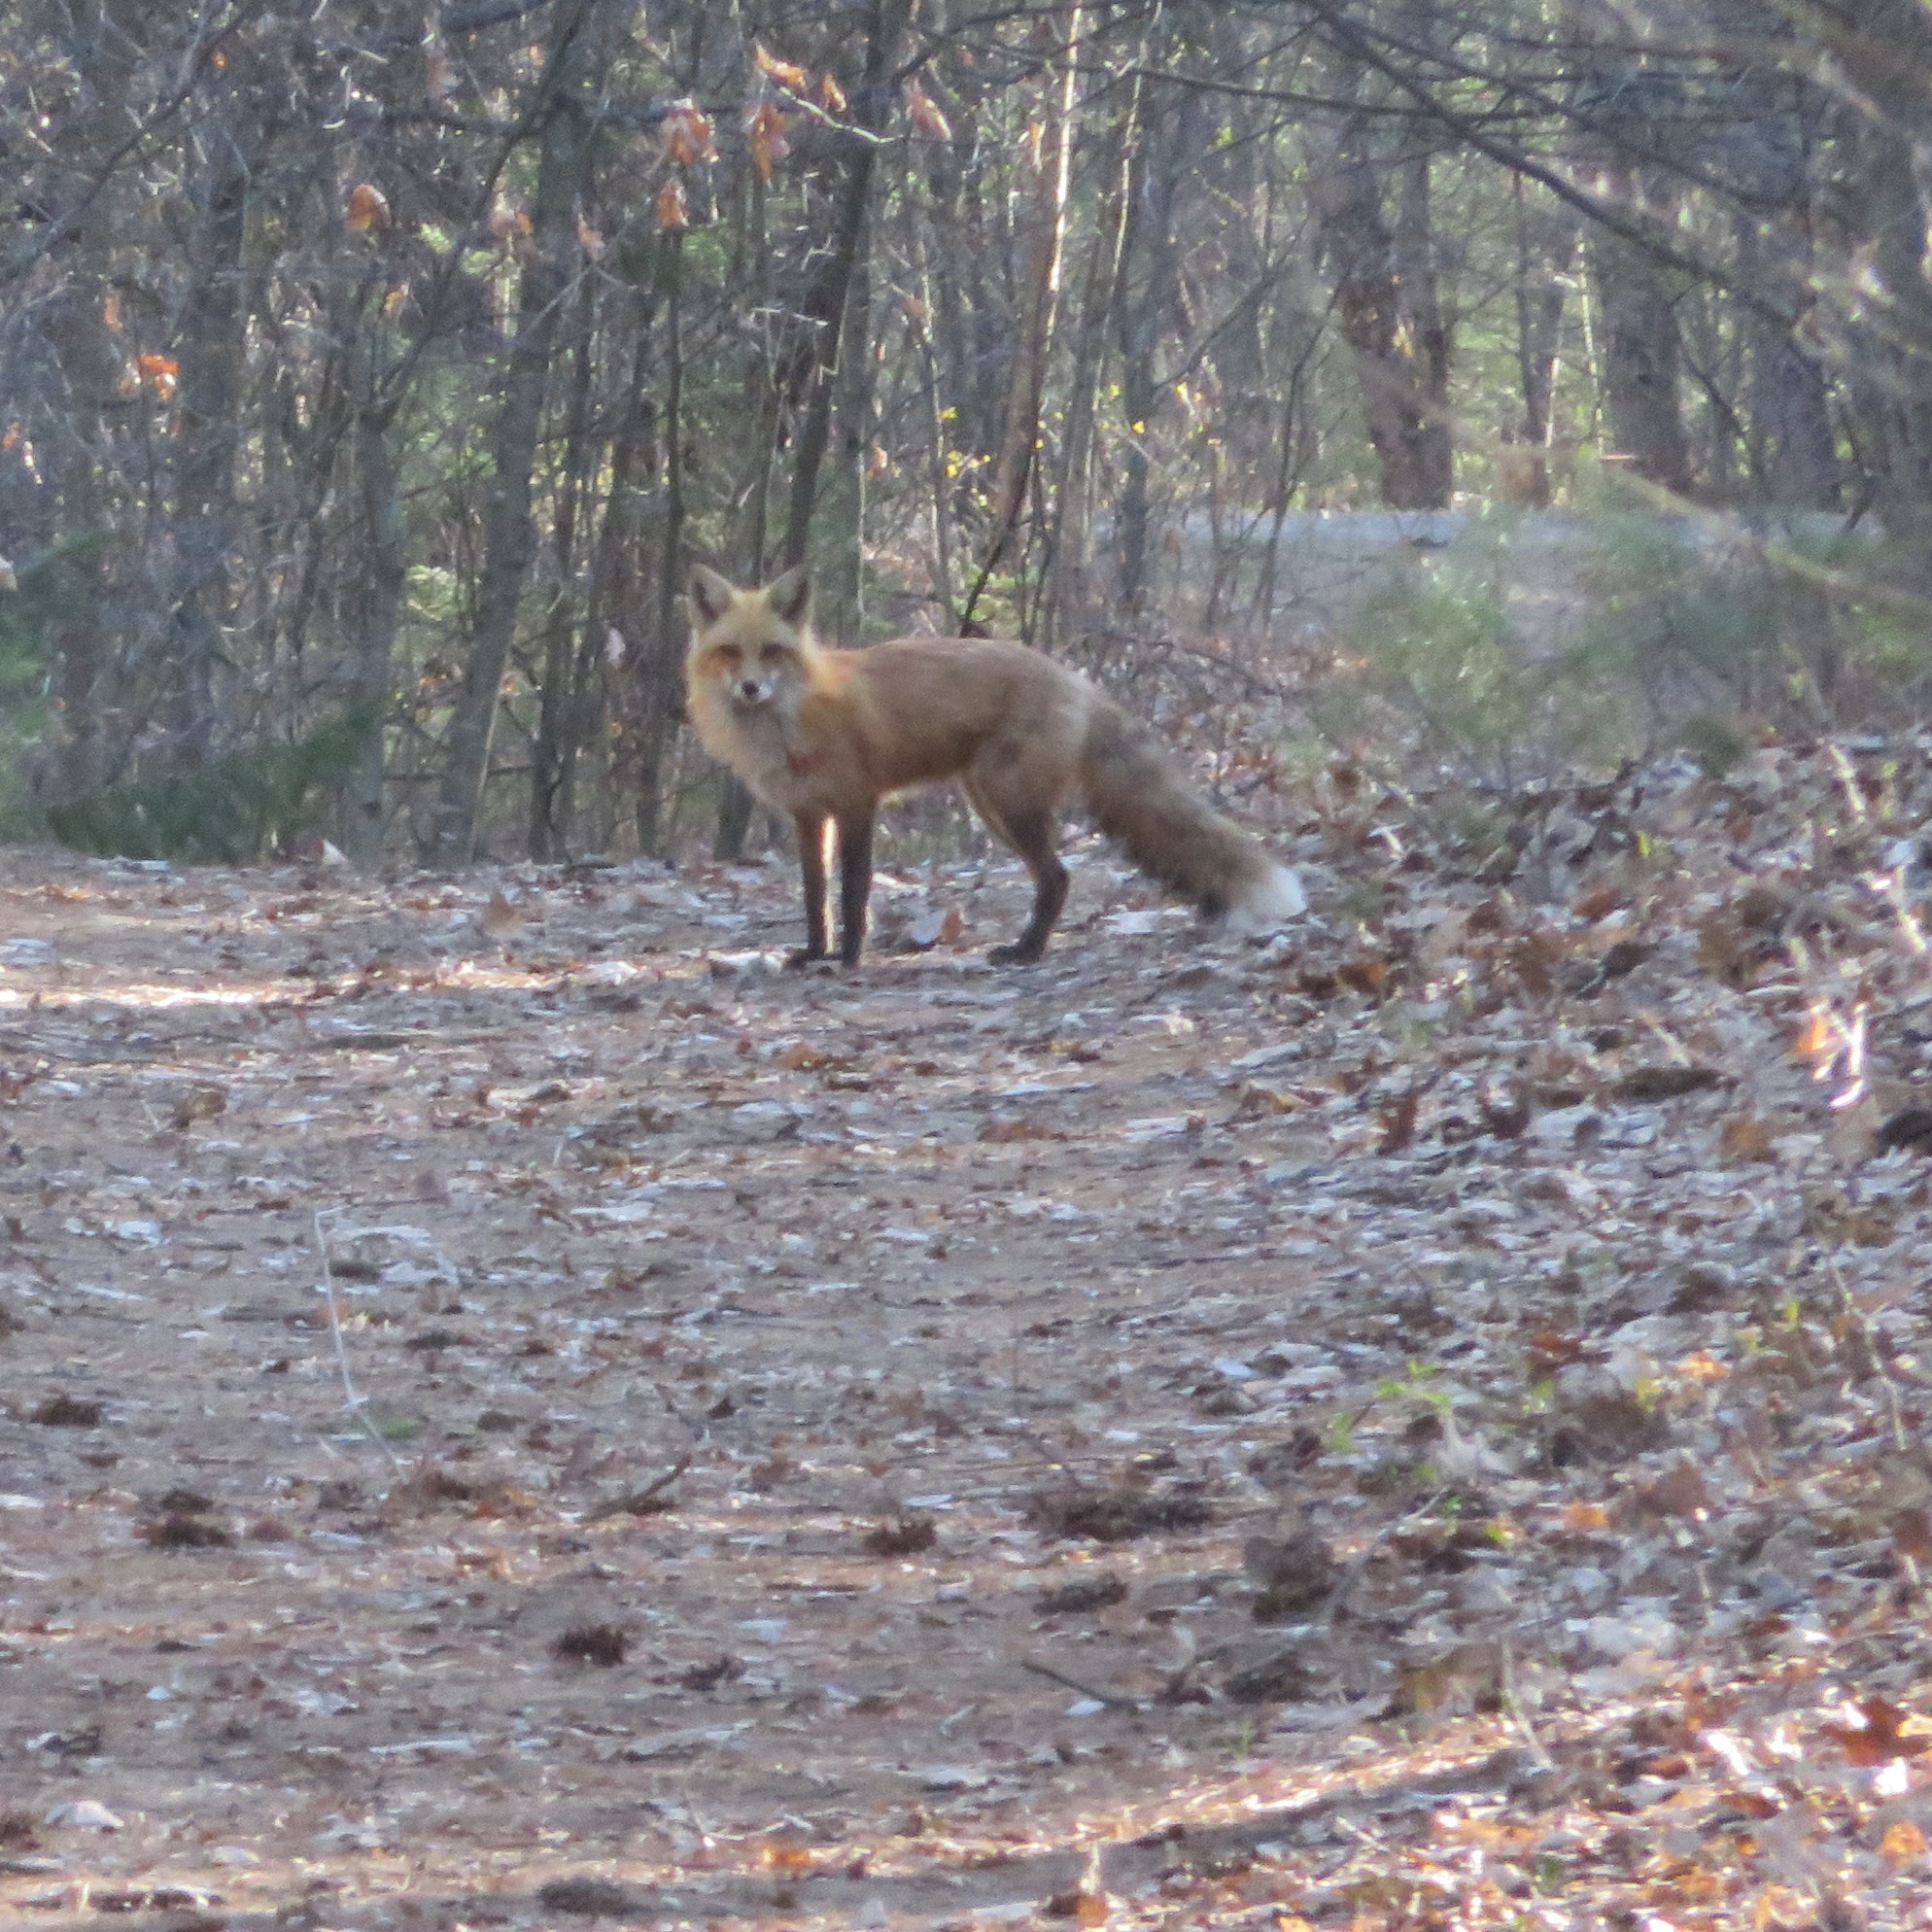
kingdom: Animalia
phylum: Chordata
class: Mammalia
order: Carnivora
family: Canidae
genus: Vulpes
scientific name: Vulpes vulpes
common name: Red fox
